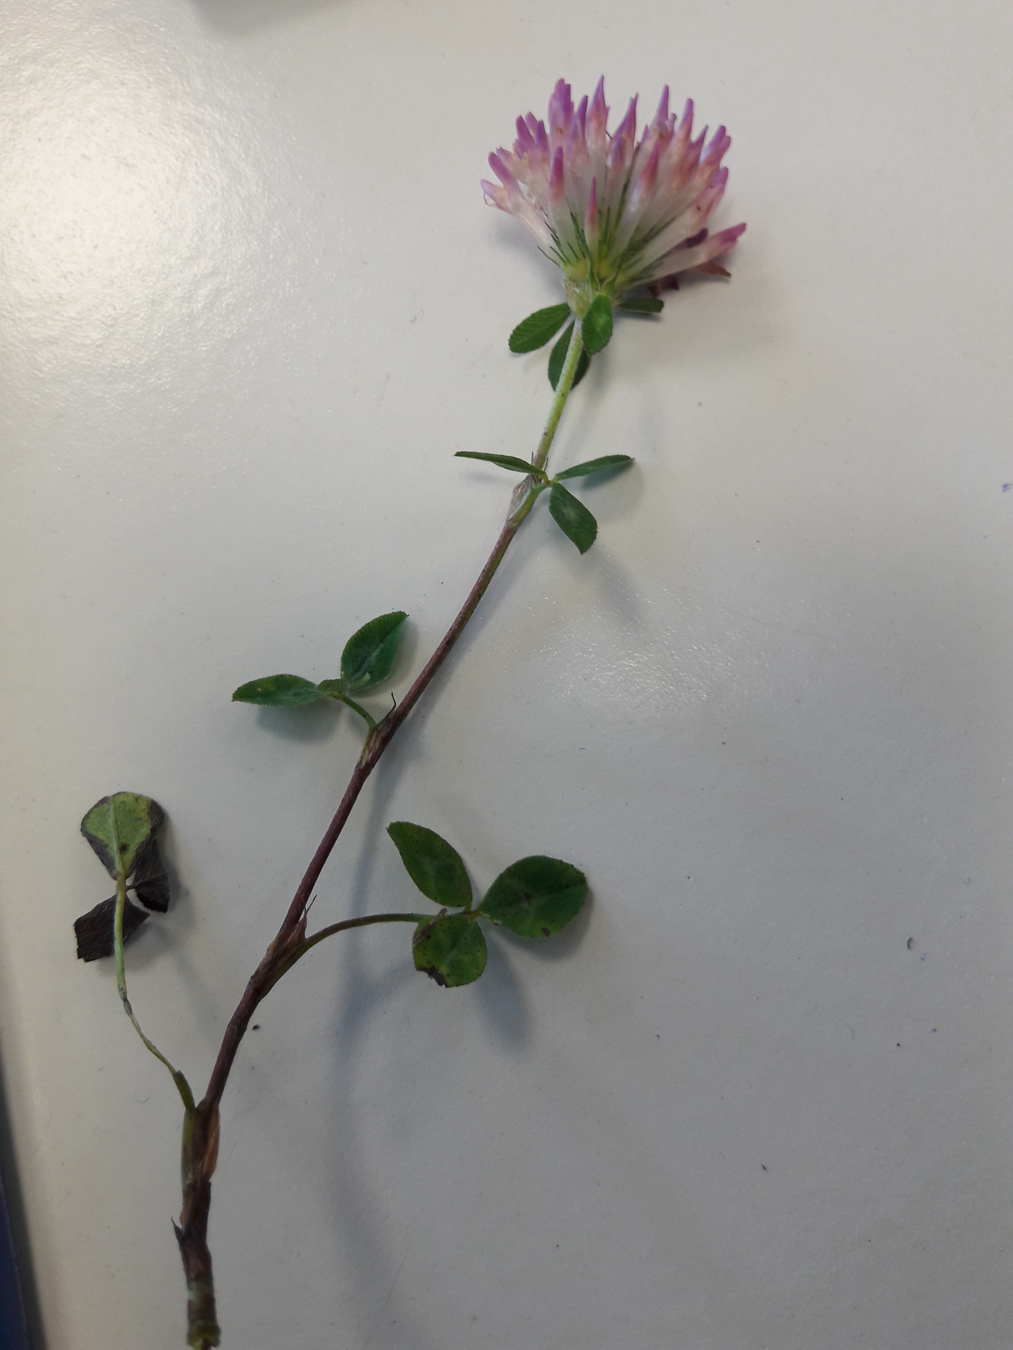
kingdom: Plantae
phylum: Tracheophyta
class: Magnoliopsida
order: Fabales
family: Fabaceae
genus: Trifolium
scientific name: Trifolium pratense
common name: Red clover
